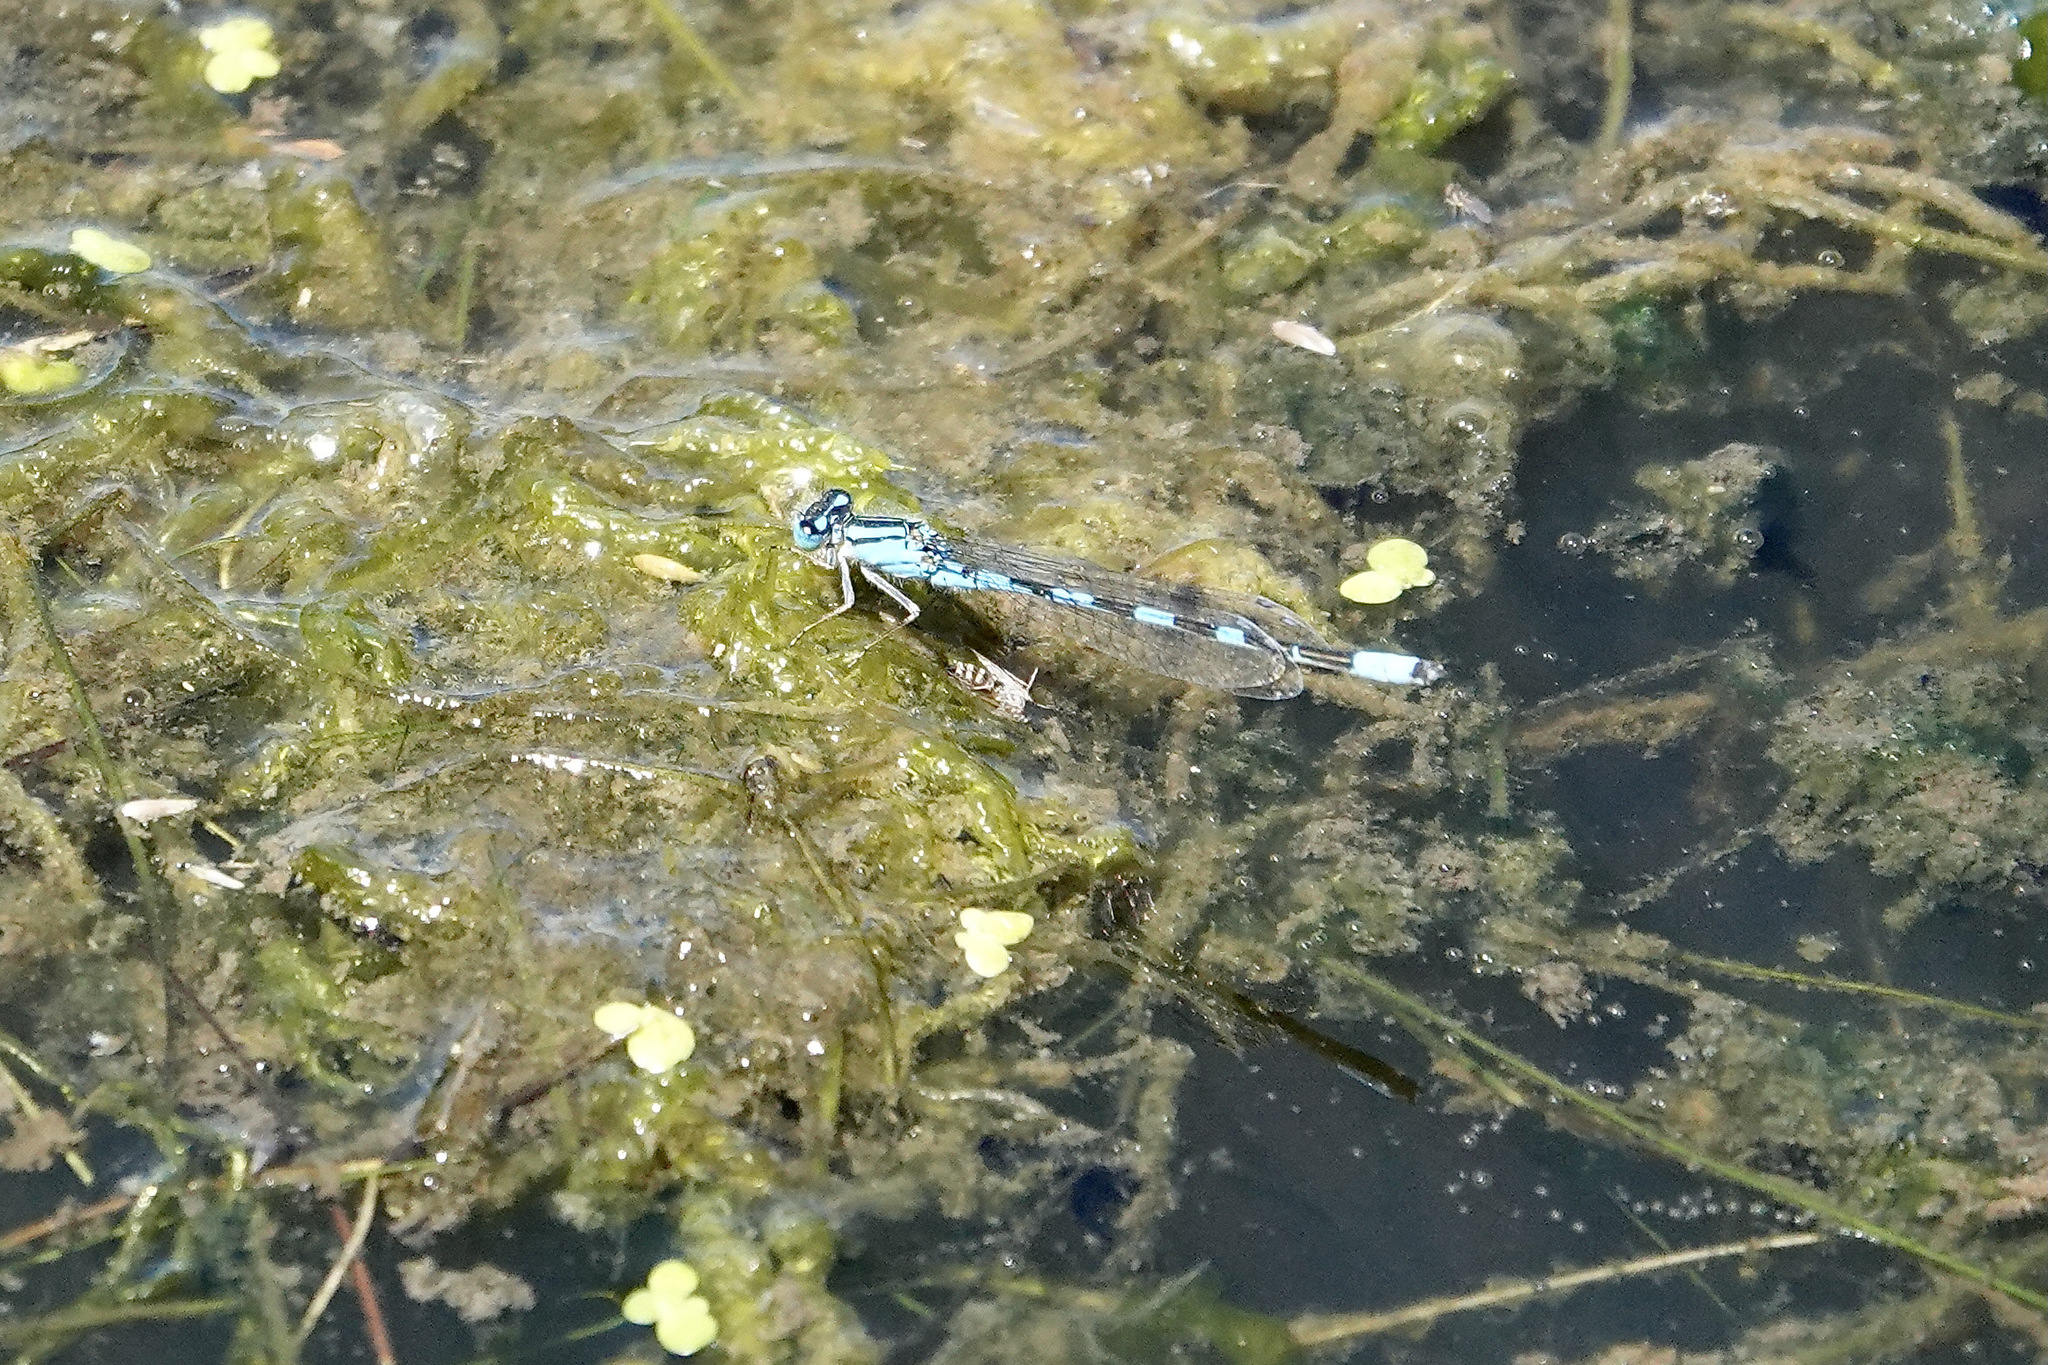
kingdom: Animalia
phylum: Arthropoda
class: Insecta
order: Odonata
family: Coenagrionidae
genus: Enallagma
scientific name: Enallagma carunculatum
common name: Tule bluet
